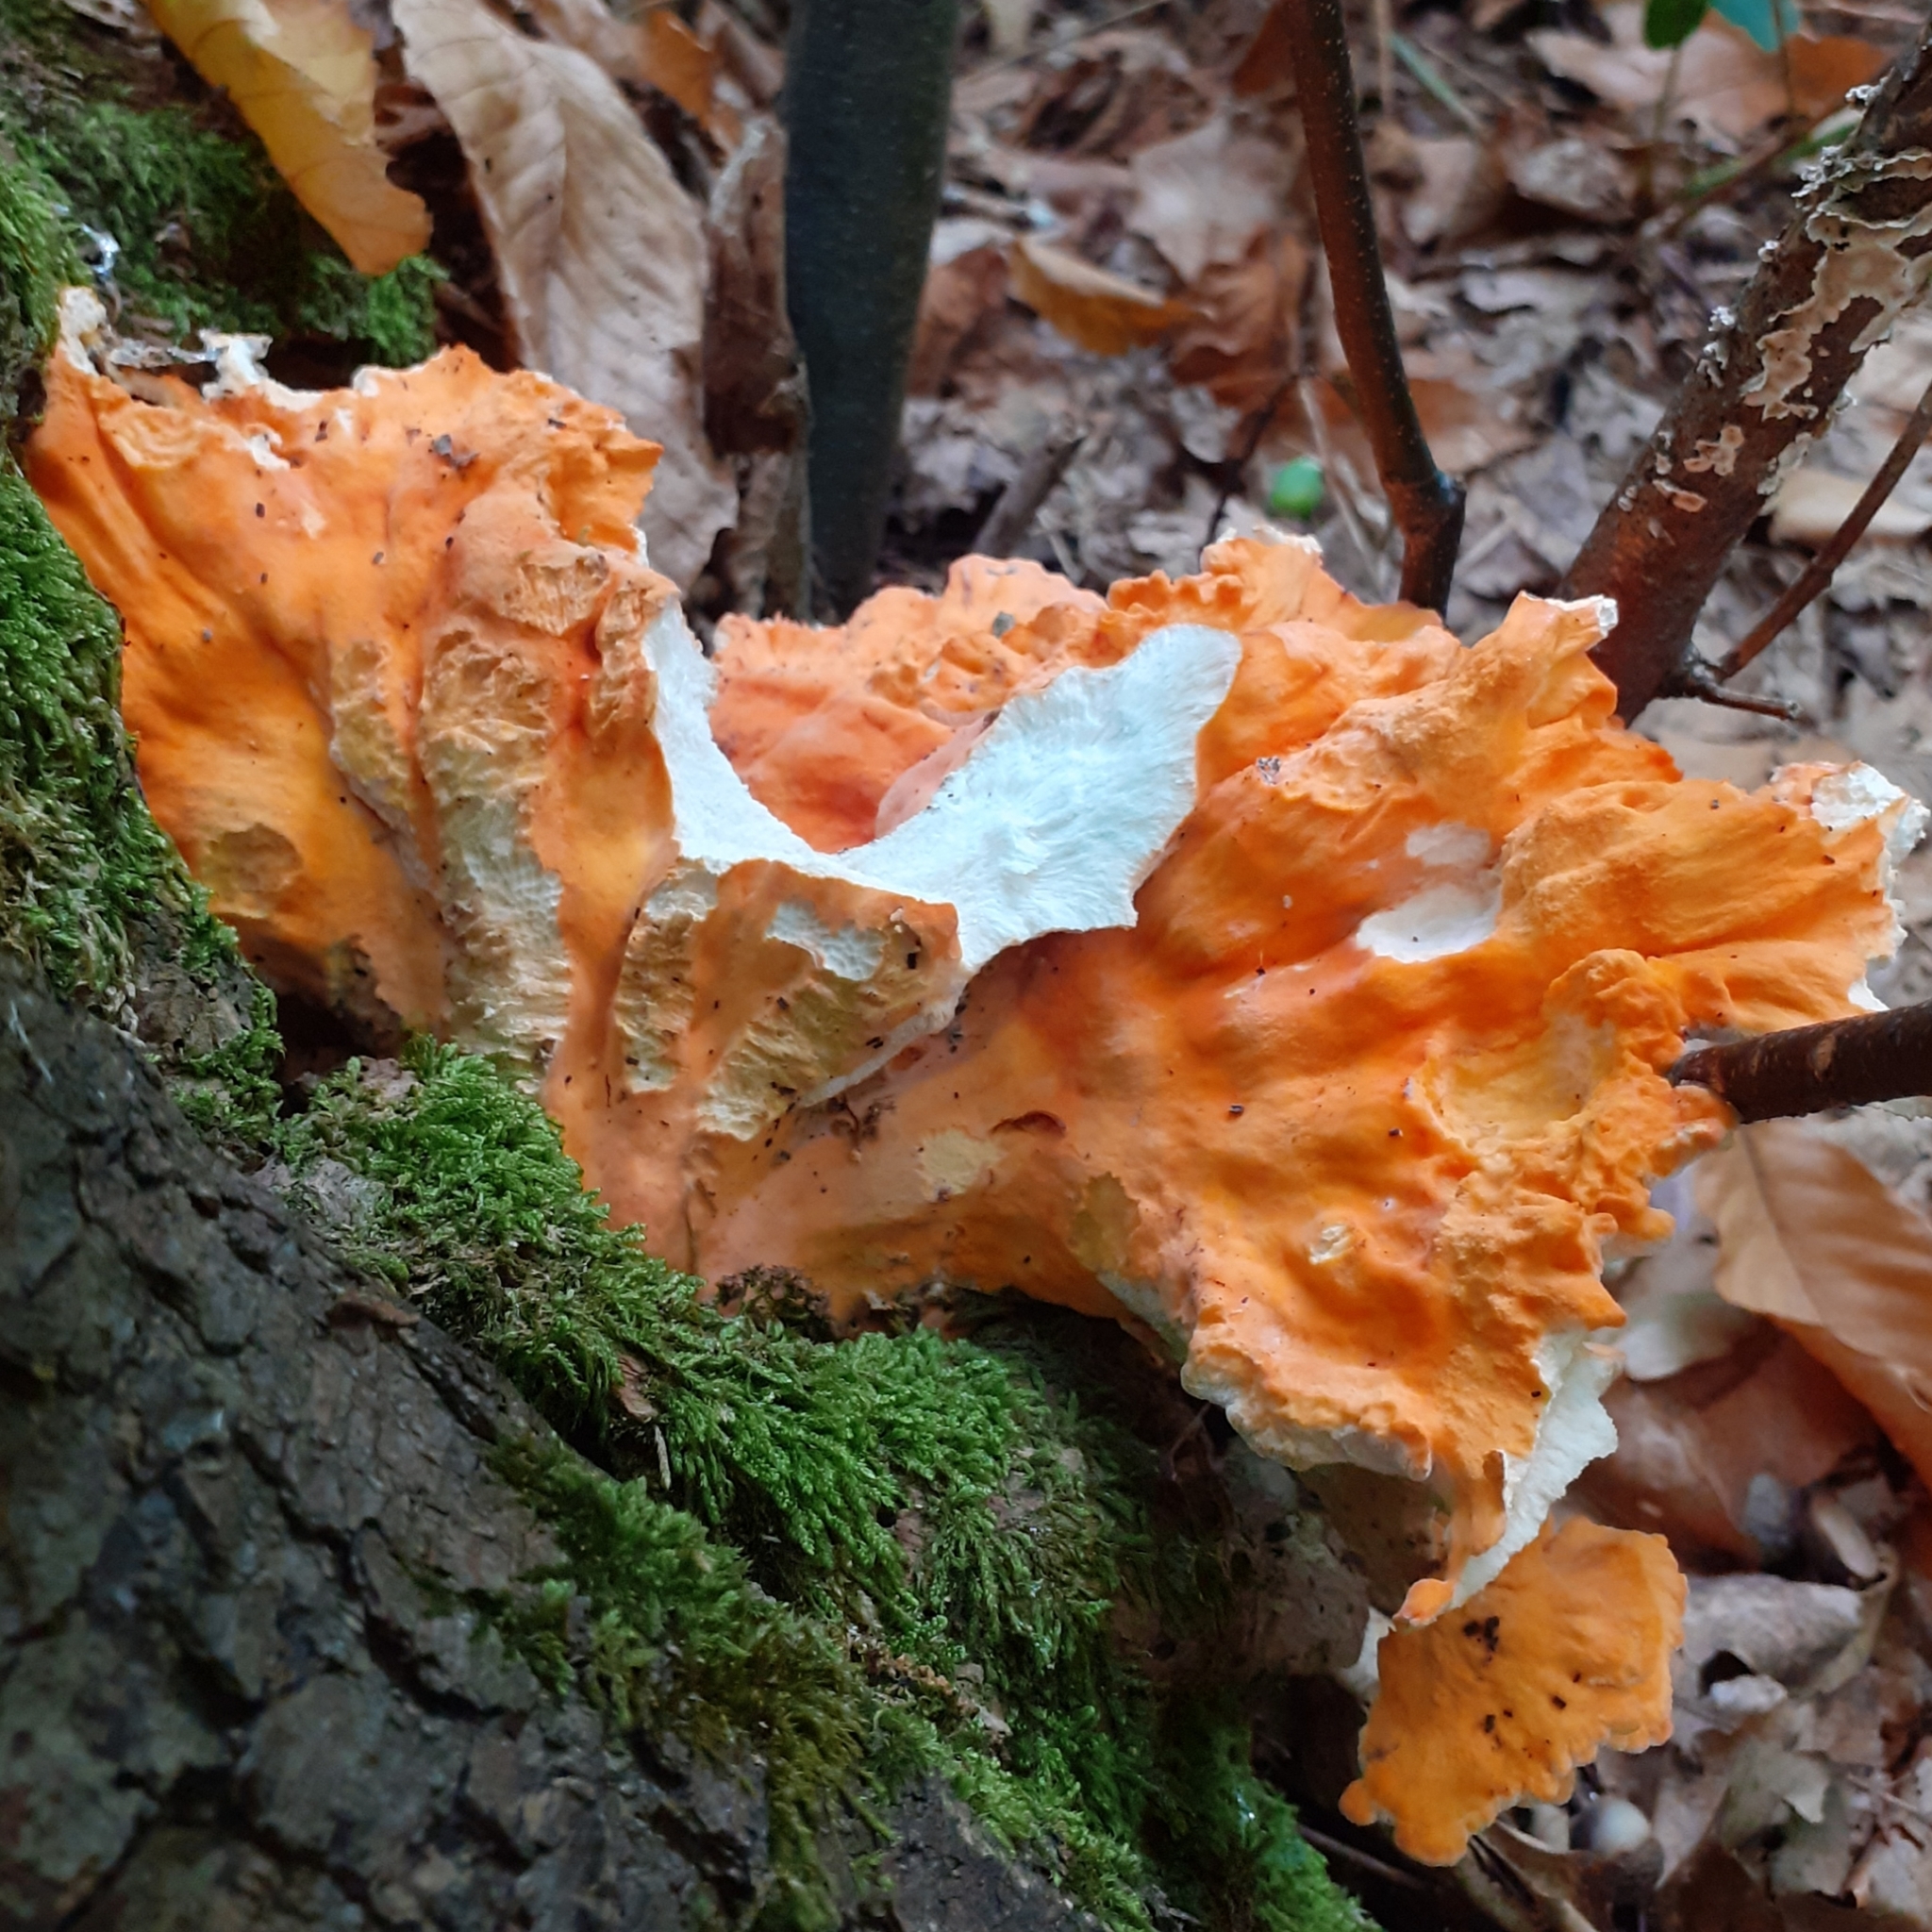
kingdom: Fungi
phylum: Basidiomycota
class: Agaricomycetes
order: Polyporales
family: Laetiporaceae
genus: Laetiporus
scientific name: Laetiporus sulphureus
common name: Chicken of the woods
